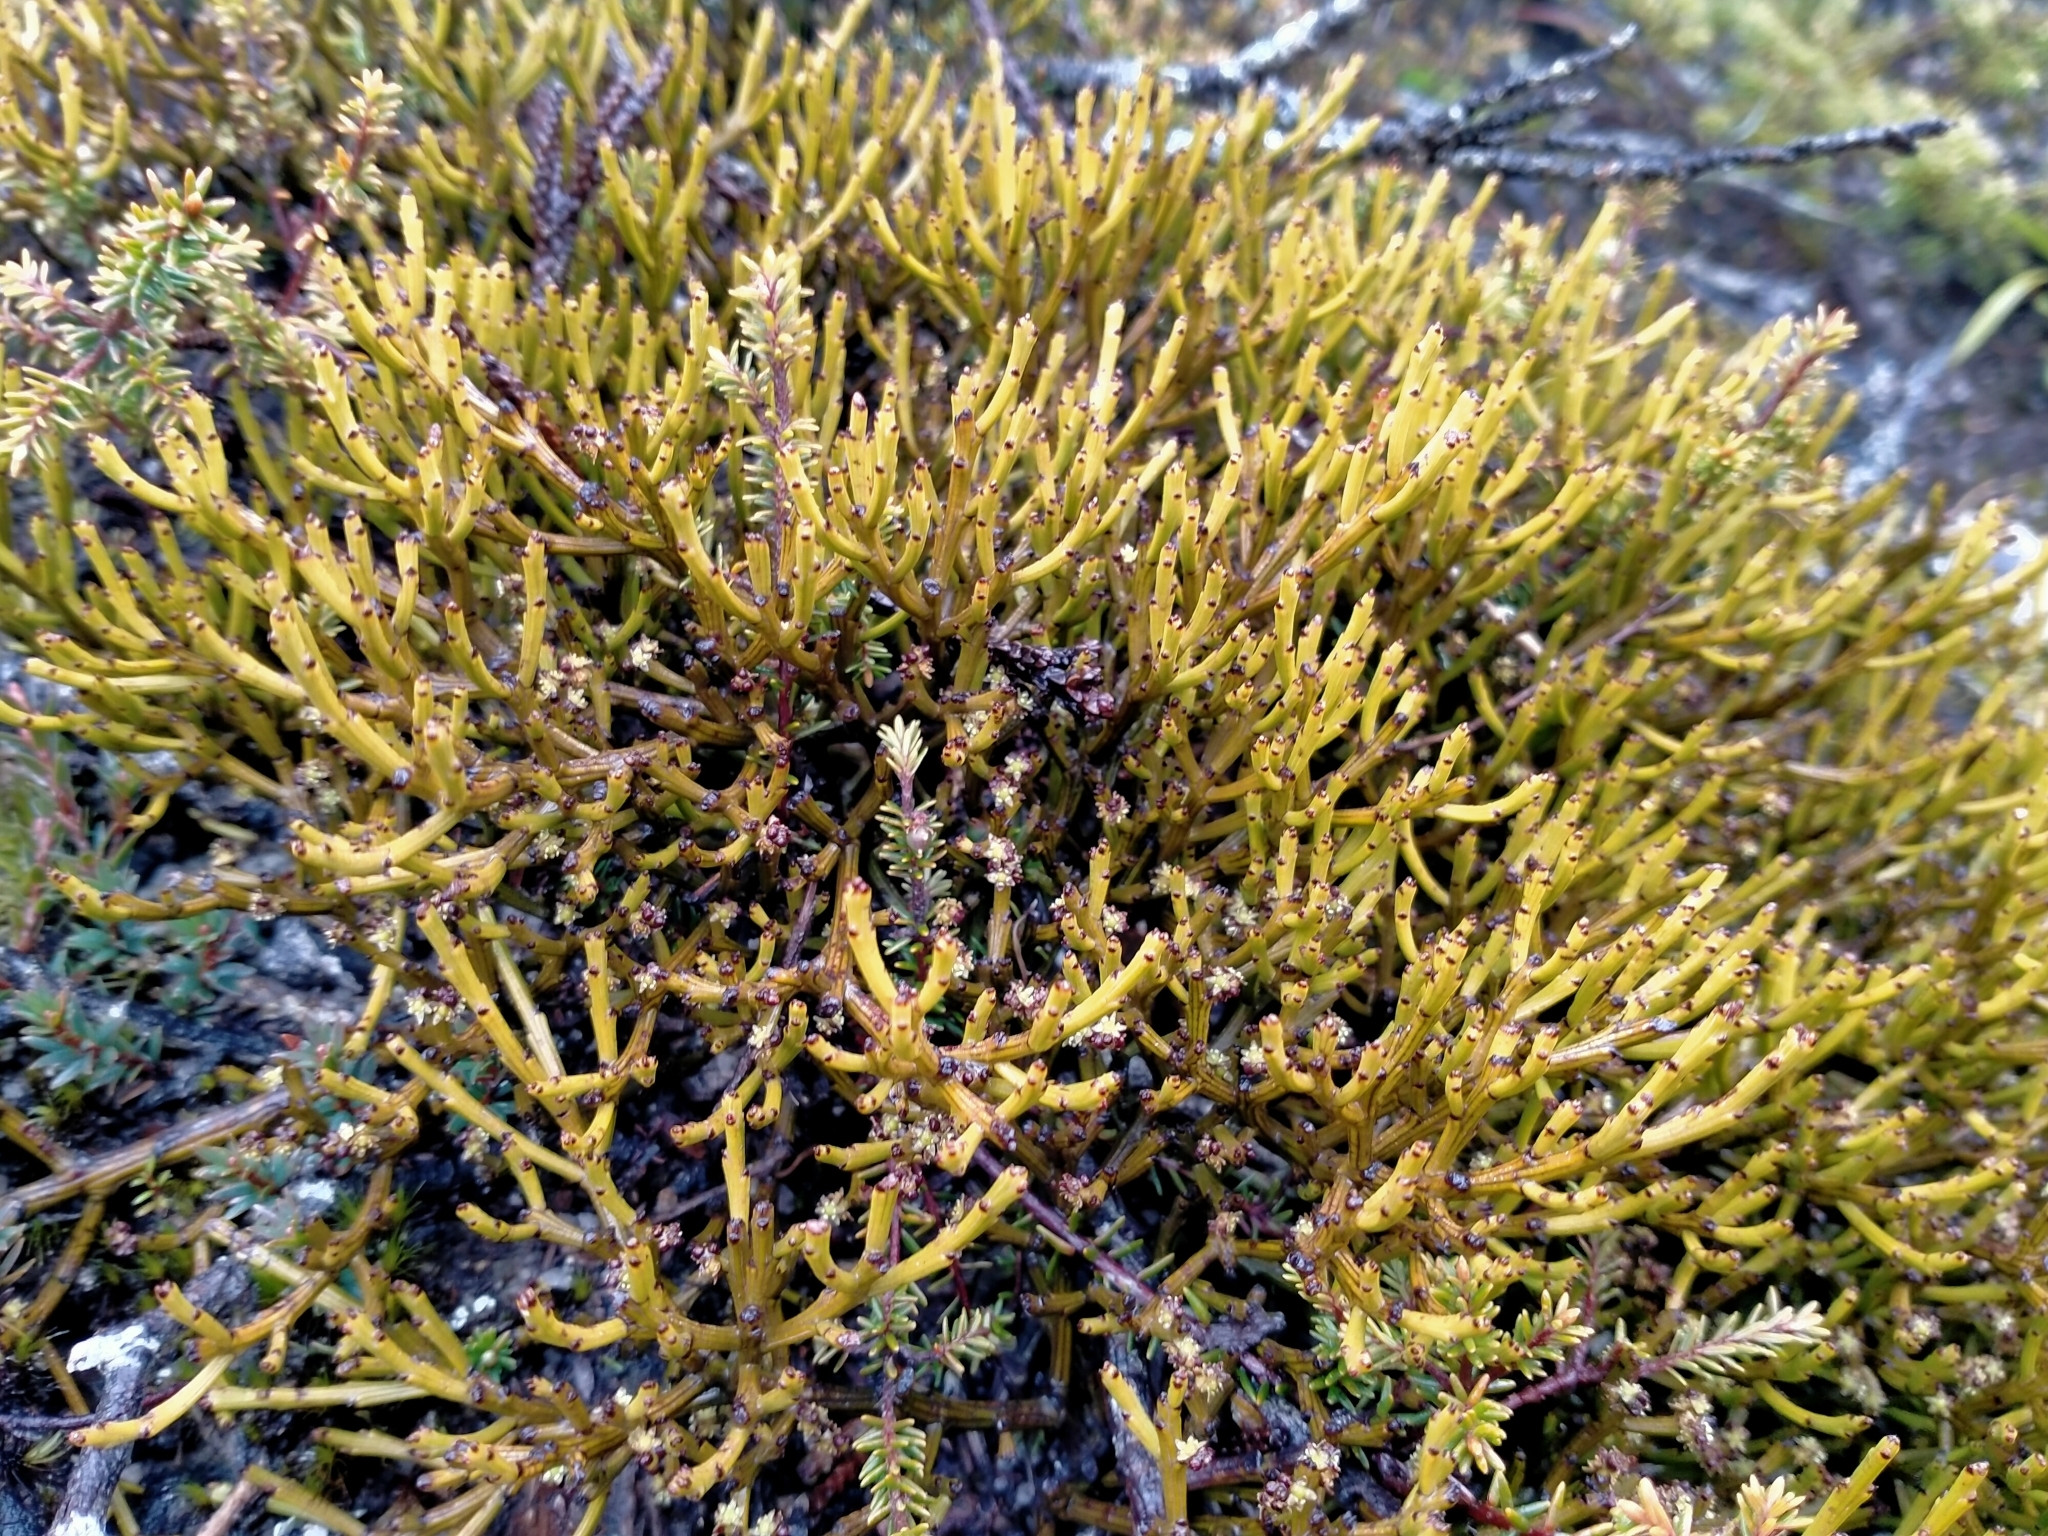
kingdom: Plantae
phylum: Tracheophyta
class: Magnoliopsida
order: Santalales
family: Santalaceae
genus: Exocarpos
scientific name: Exocarpos bidwillii
